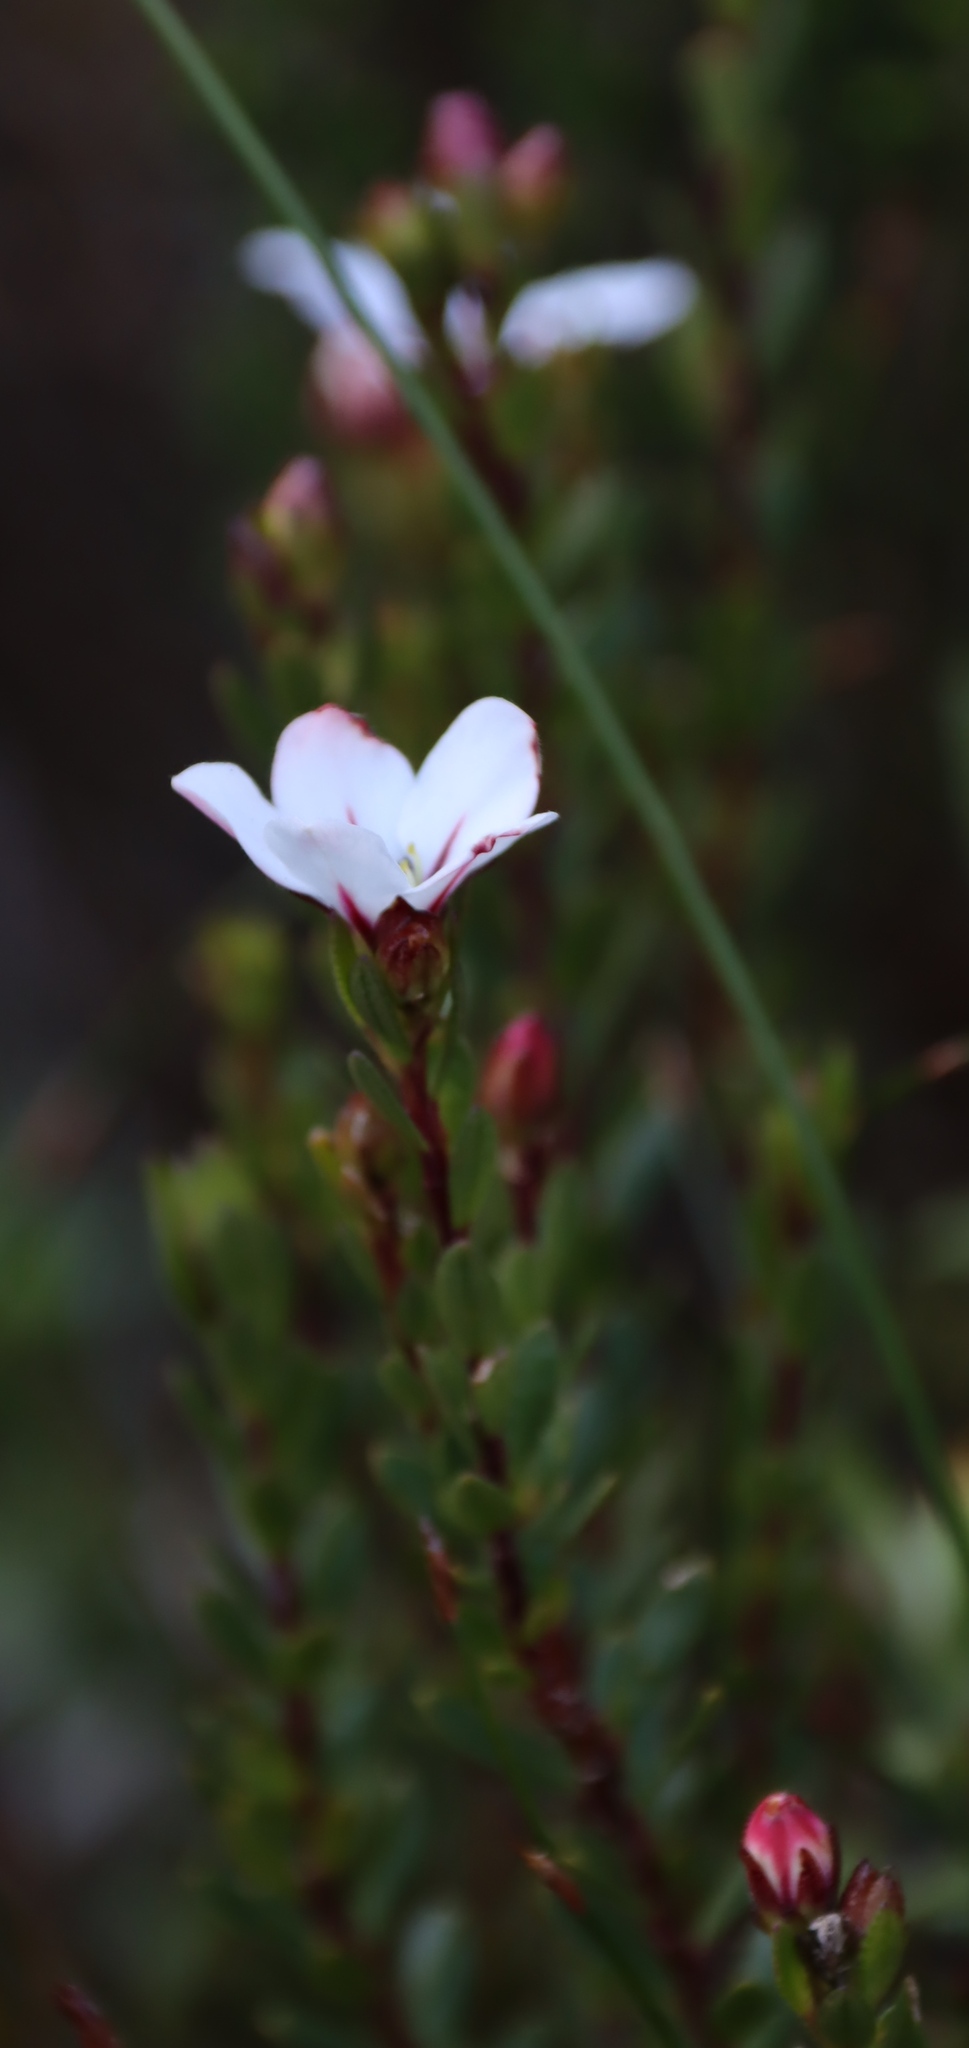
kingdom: Plantae
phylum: Tracheophyta
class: Magnoliopsida
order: Sapindales
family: Rutaceae
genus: Adenandra
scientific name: Adenandra uniflora
